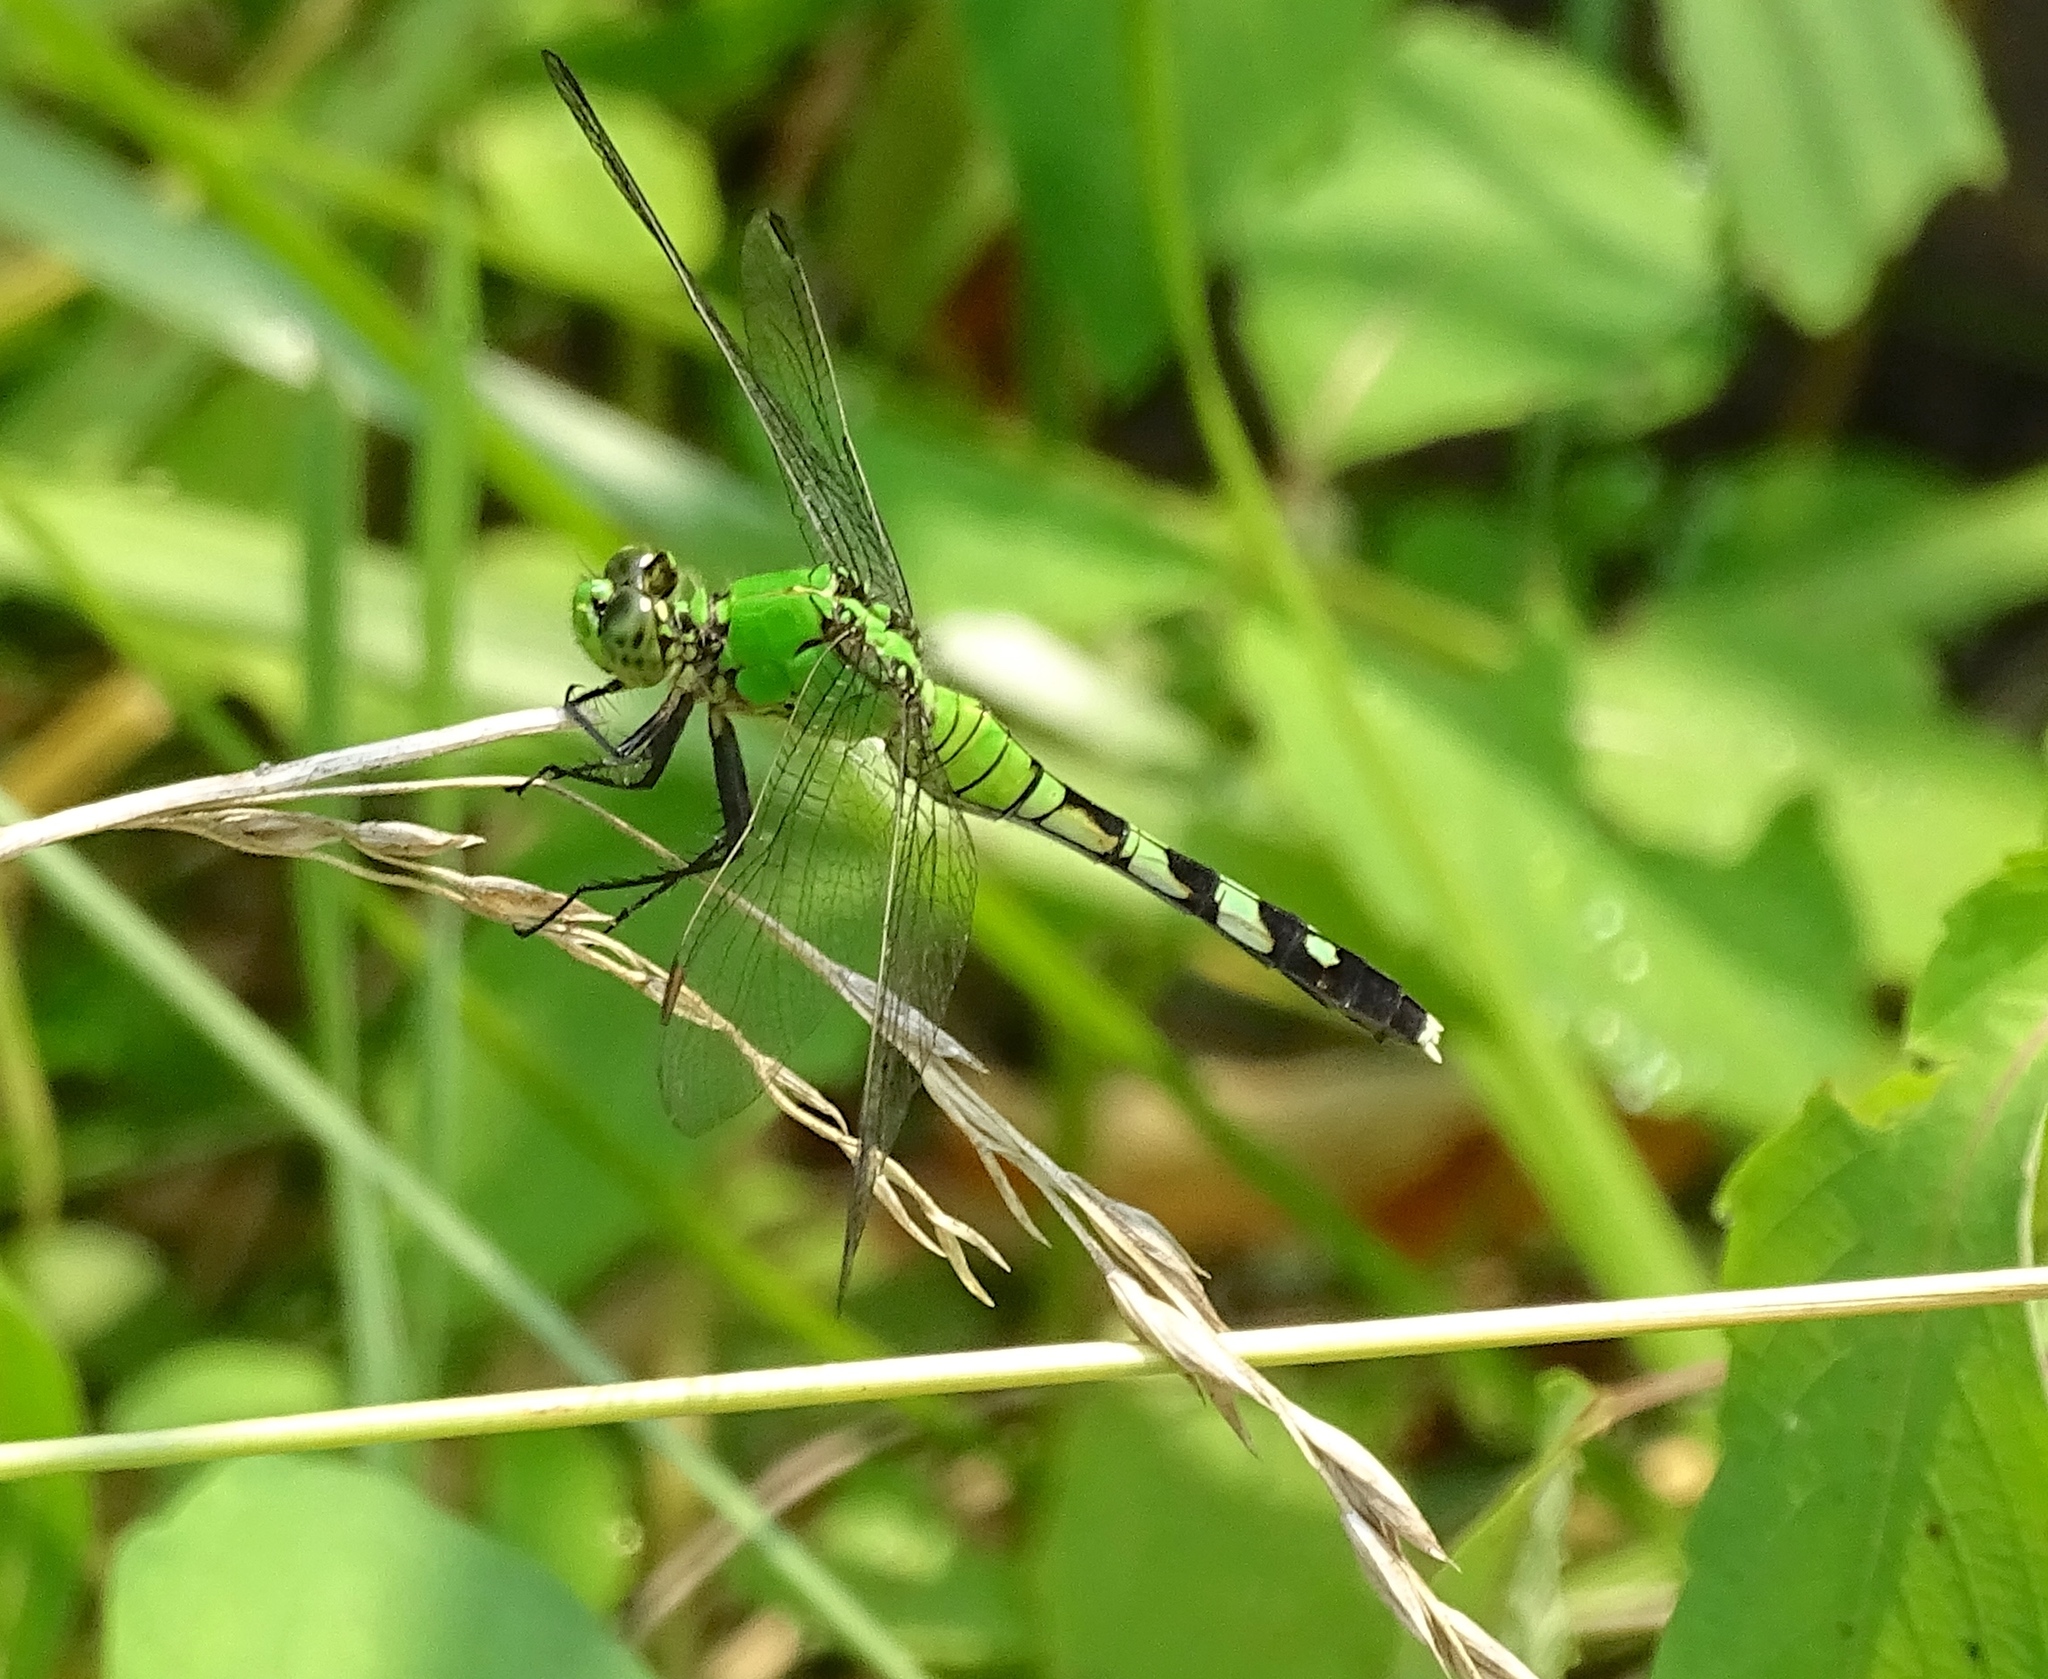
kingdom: Animalia
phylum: Arthropoda
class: Insecta
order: Odonata
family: Libellulidae
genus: Erythemis
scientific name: Erythemis simplicicollis
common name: Eastern pondhawk
